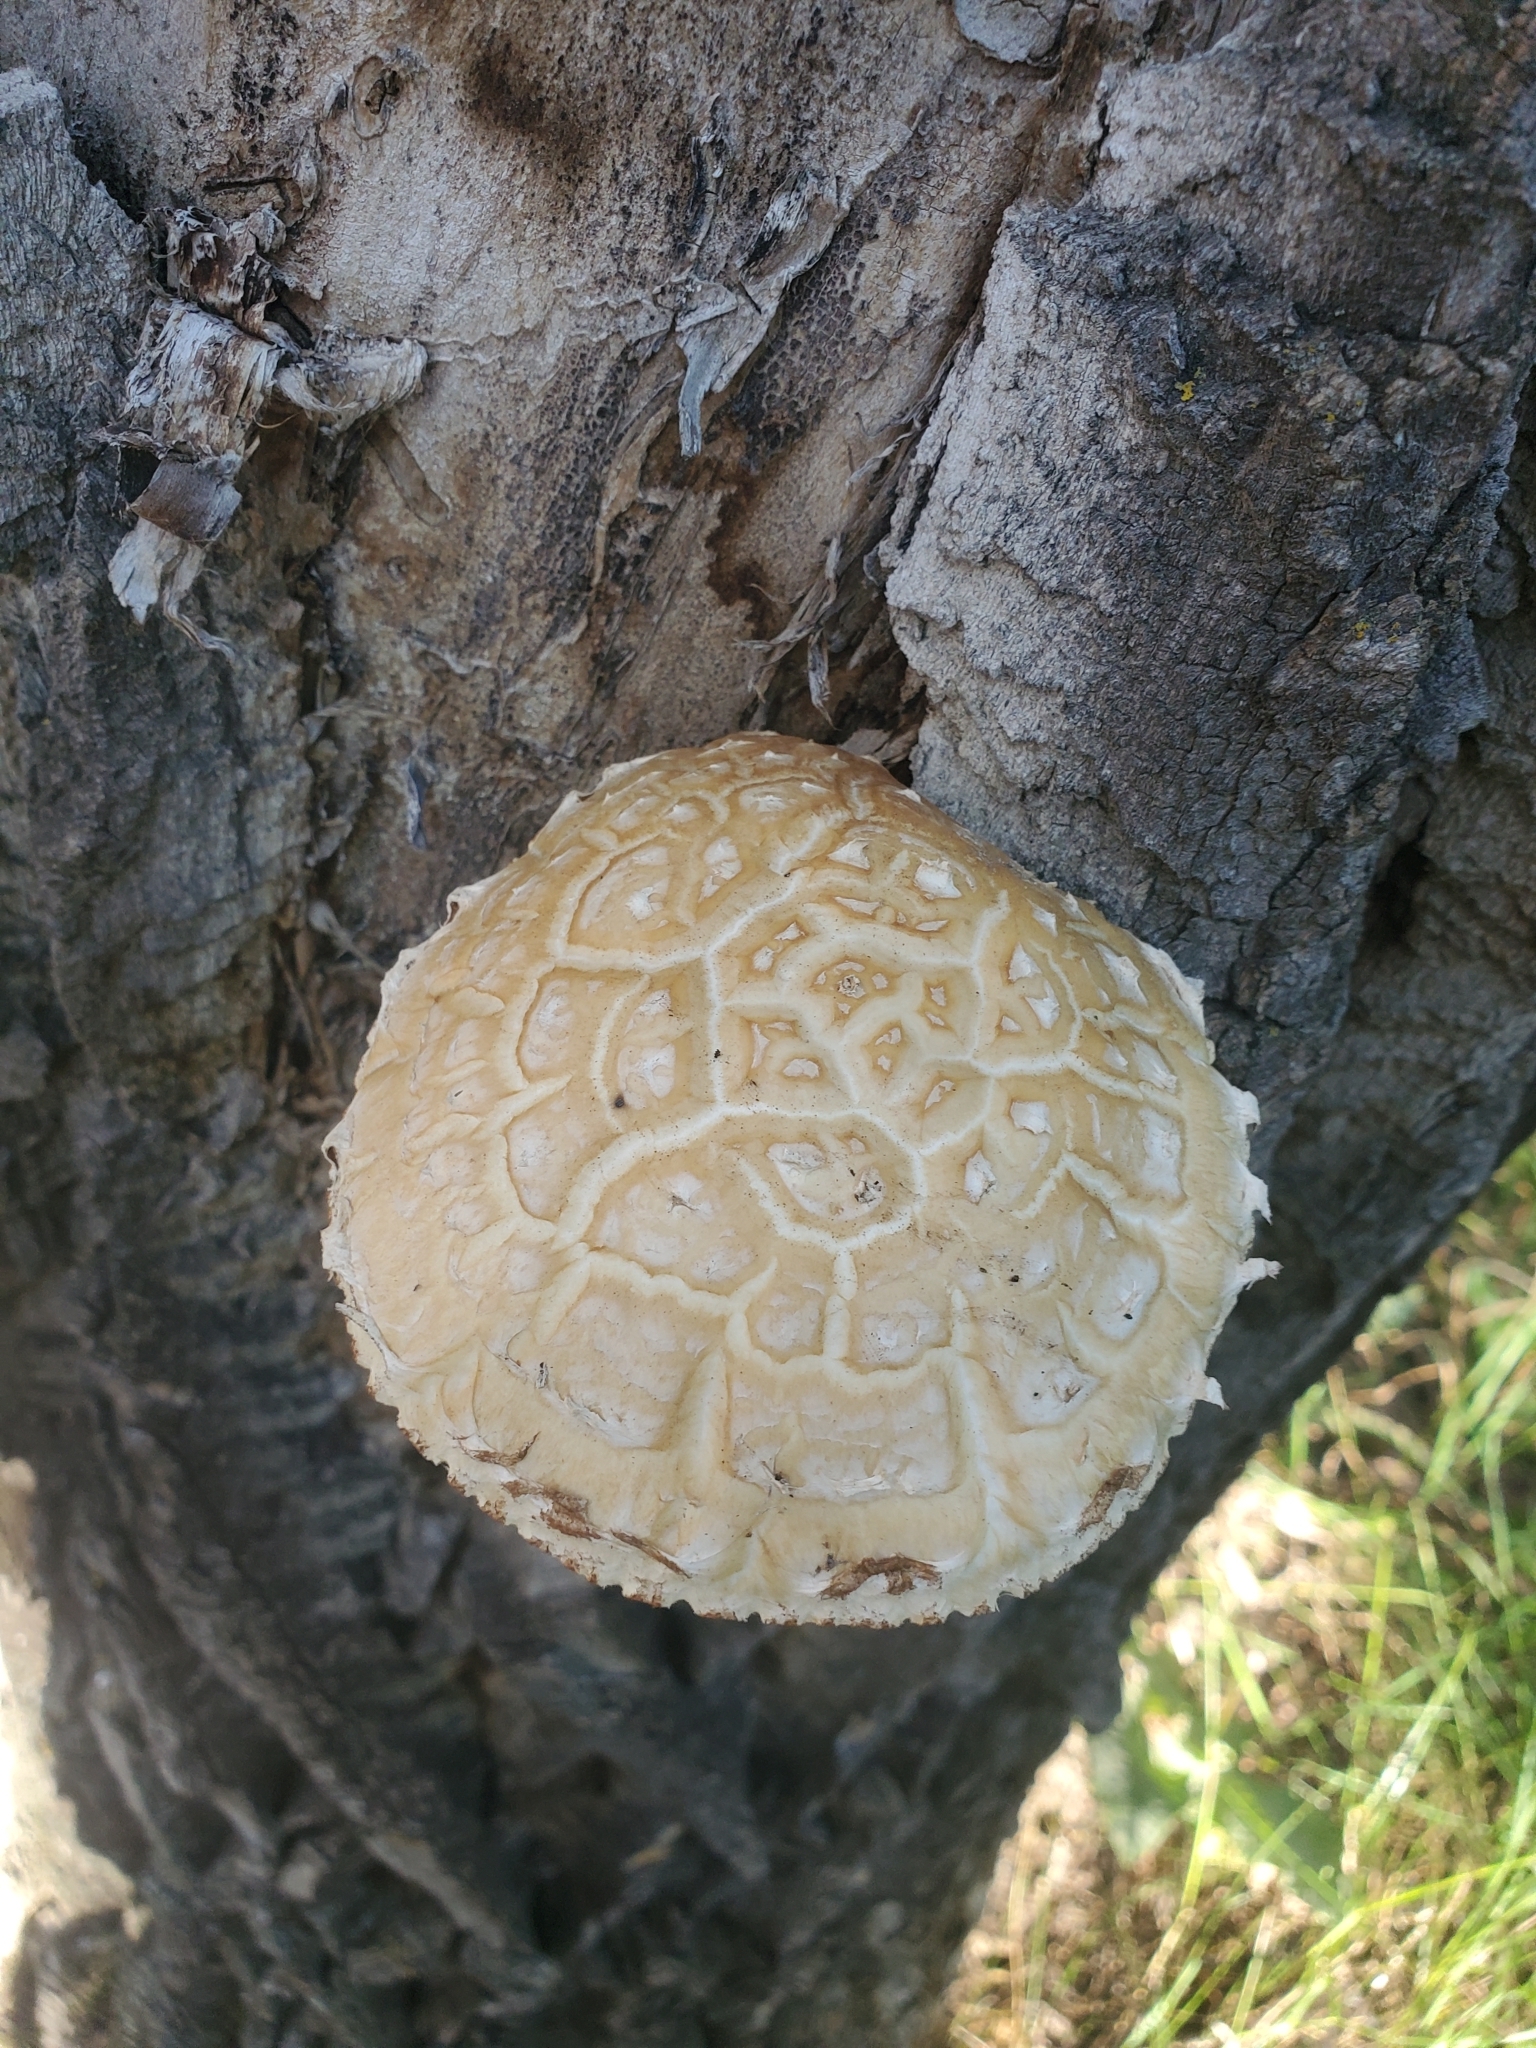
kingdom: Fungi
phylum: Basidiomycota
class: Agaricomycetes
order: Agaricales
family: Strophariaceae
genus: Pholiota
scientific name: Pholiota populnea
